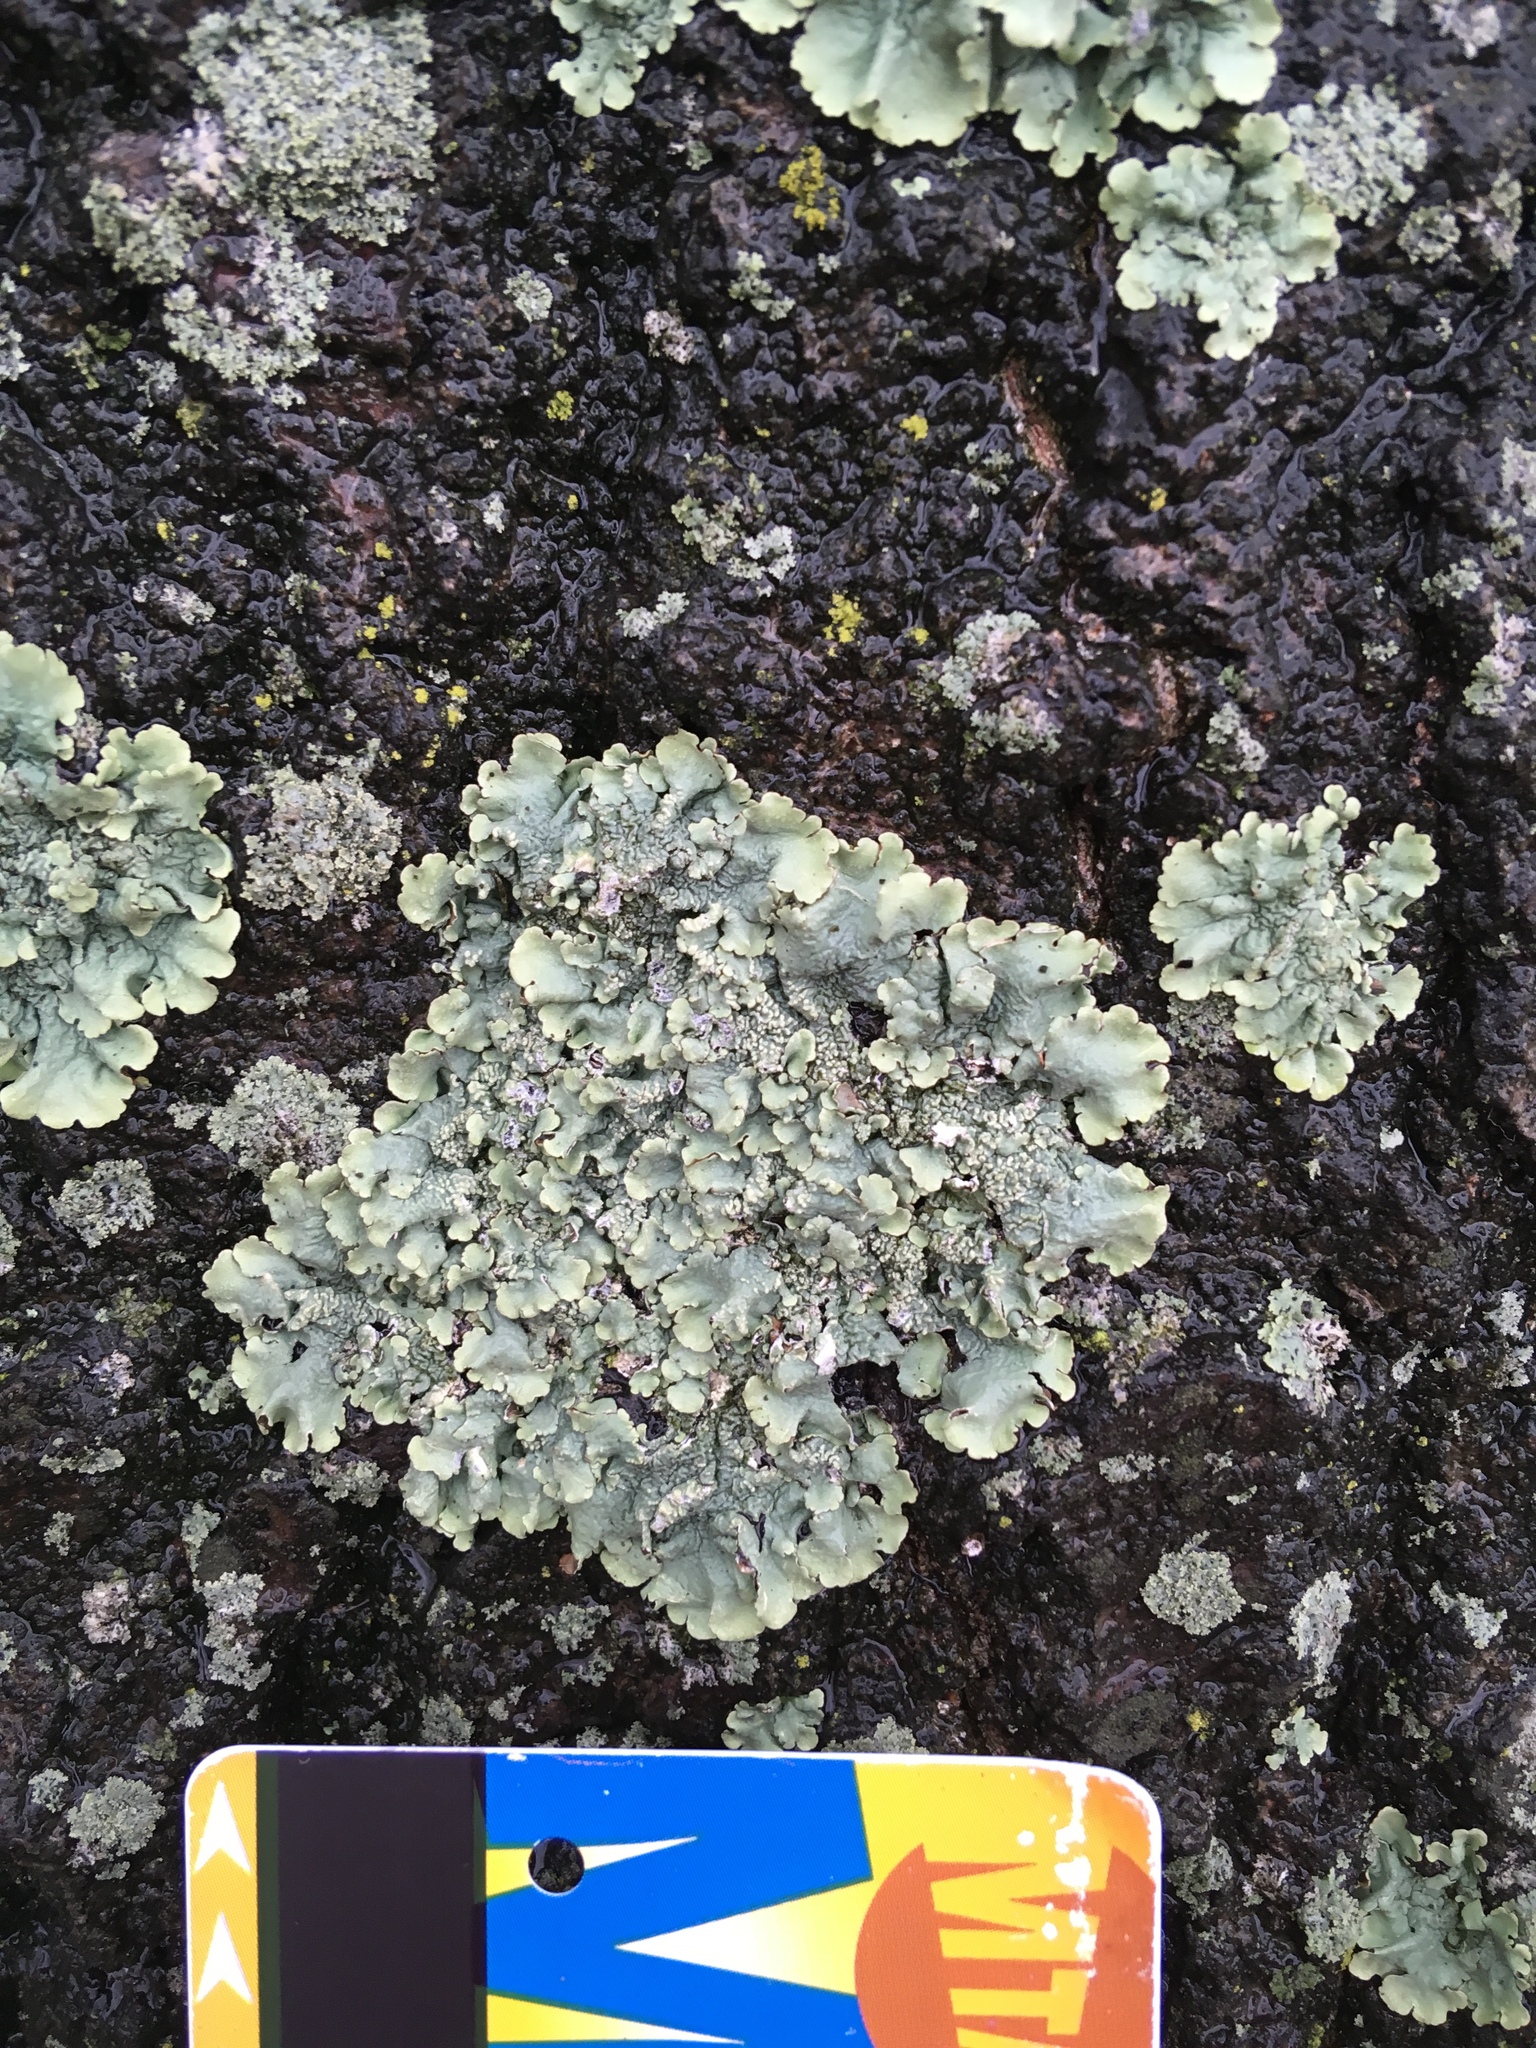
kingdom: Fungi
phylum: Ascomycota
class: Lecanoromycetes
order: Lecanorales
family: Parmeliaceae
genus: Flavoparmelia
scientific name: Flavoparmelia caperata
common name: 40-mile per hour lichen
